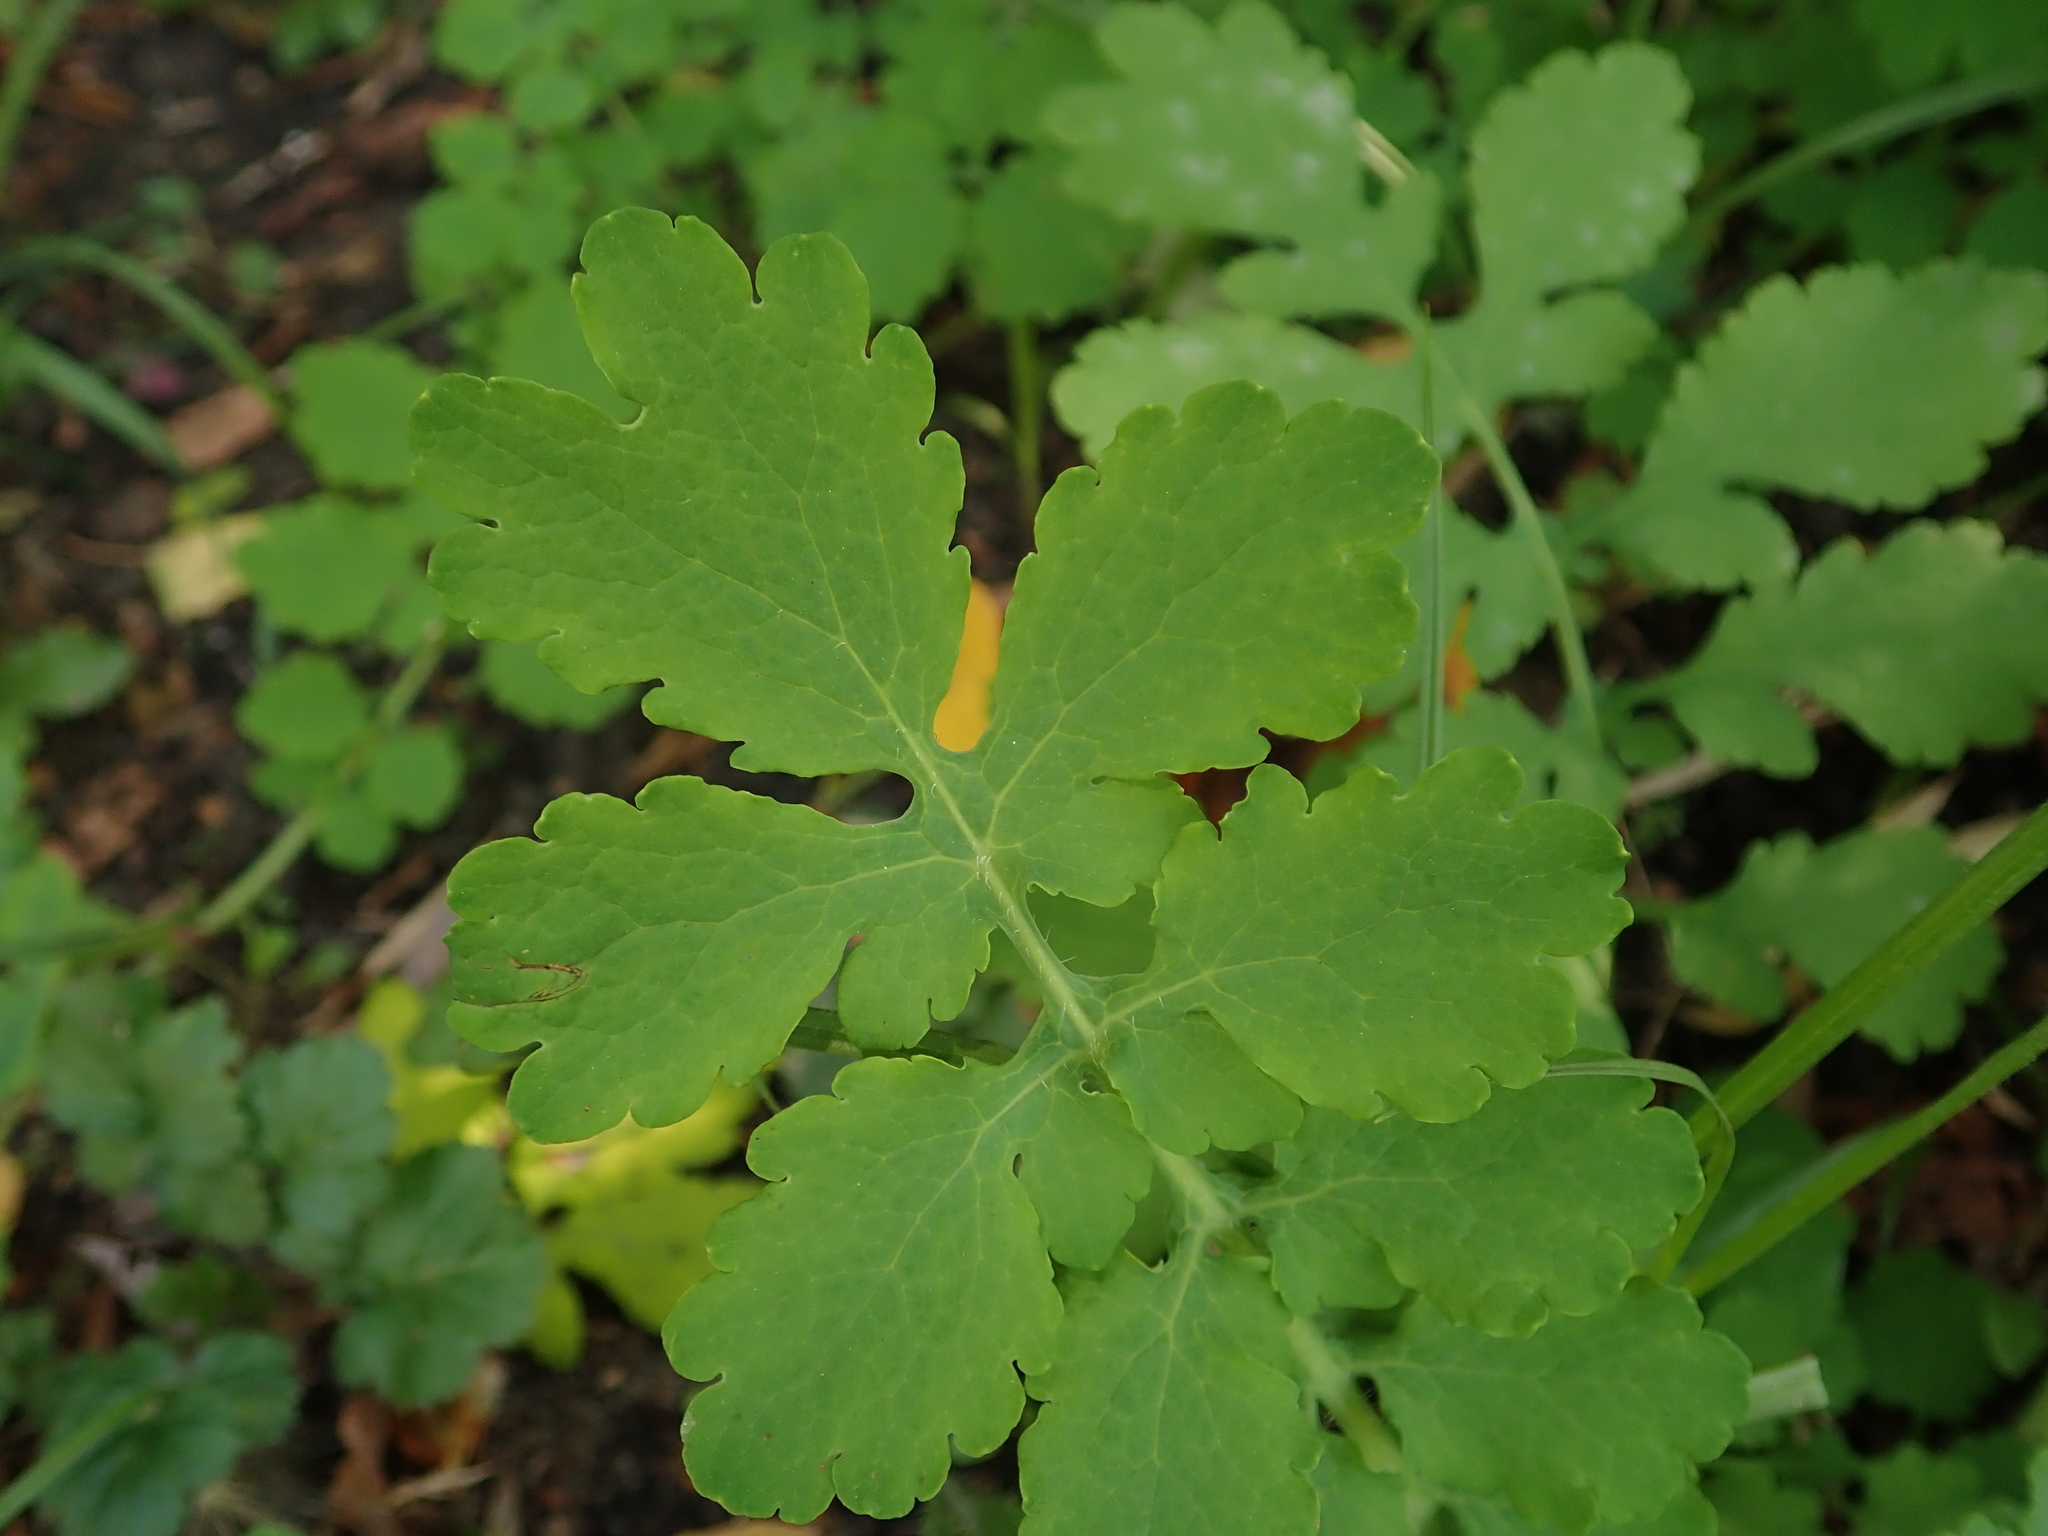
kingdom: Plantae
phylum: Tracheophyta
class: Magnoliopsida
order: Ranunculales
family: Papaveraceae
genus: Chelidonium
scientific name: Chelidonium majus
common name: Greater celandine
